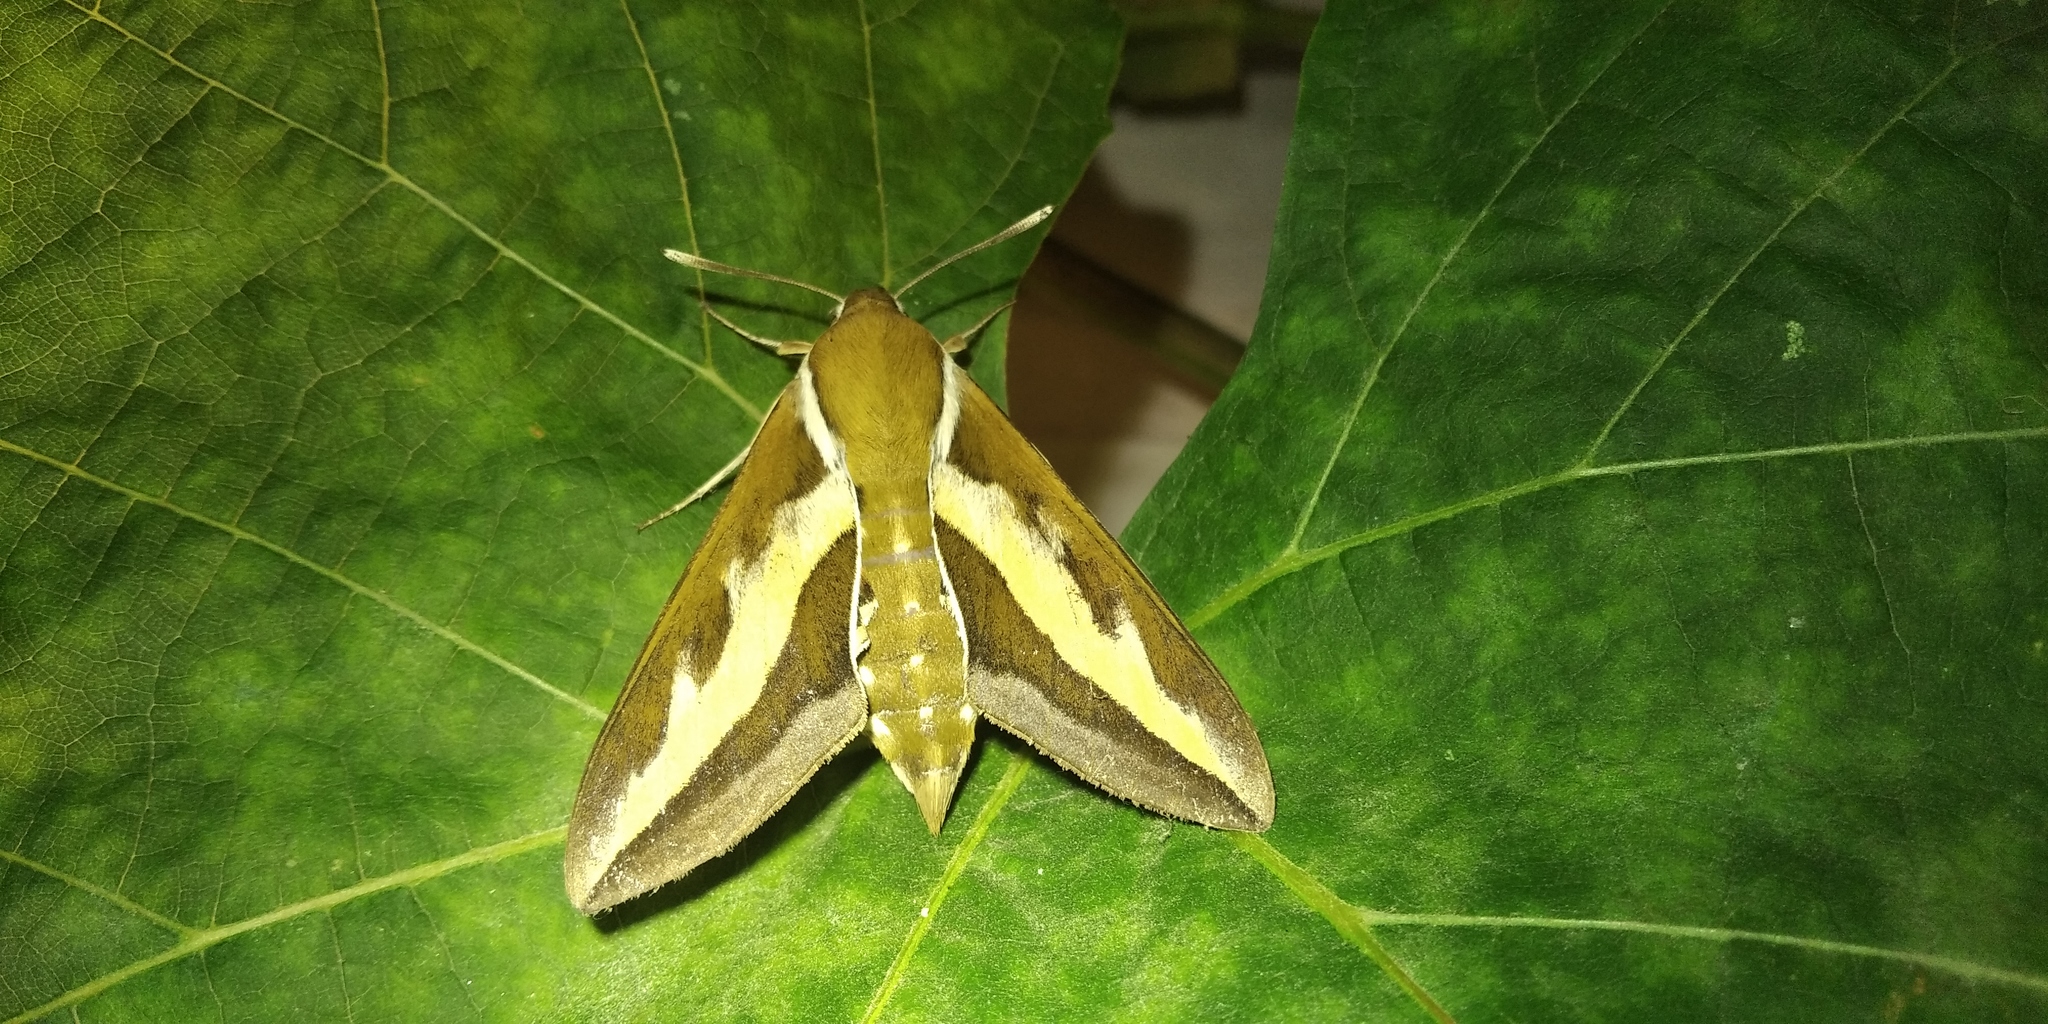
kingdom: Animalia
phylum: Arthropoda
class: Insecta
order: Lepidoptera
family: Sphingidae
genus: Hyles
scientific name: Hyles gallii
